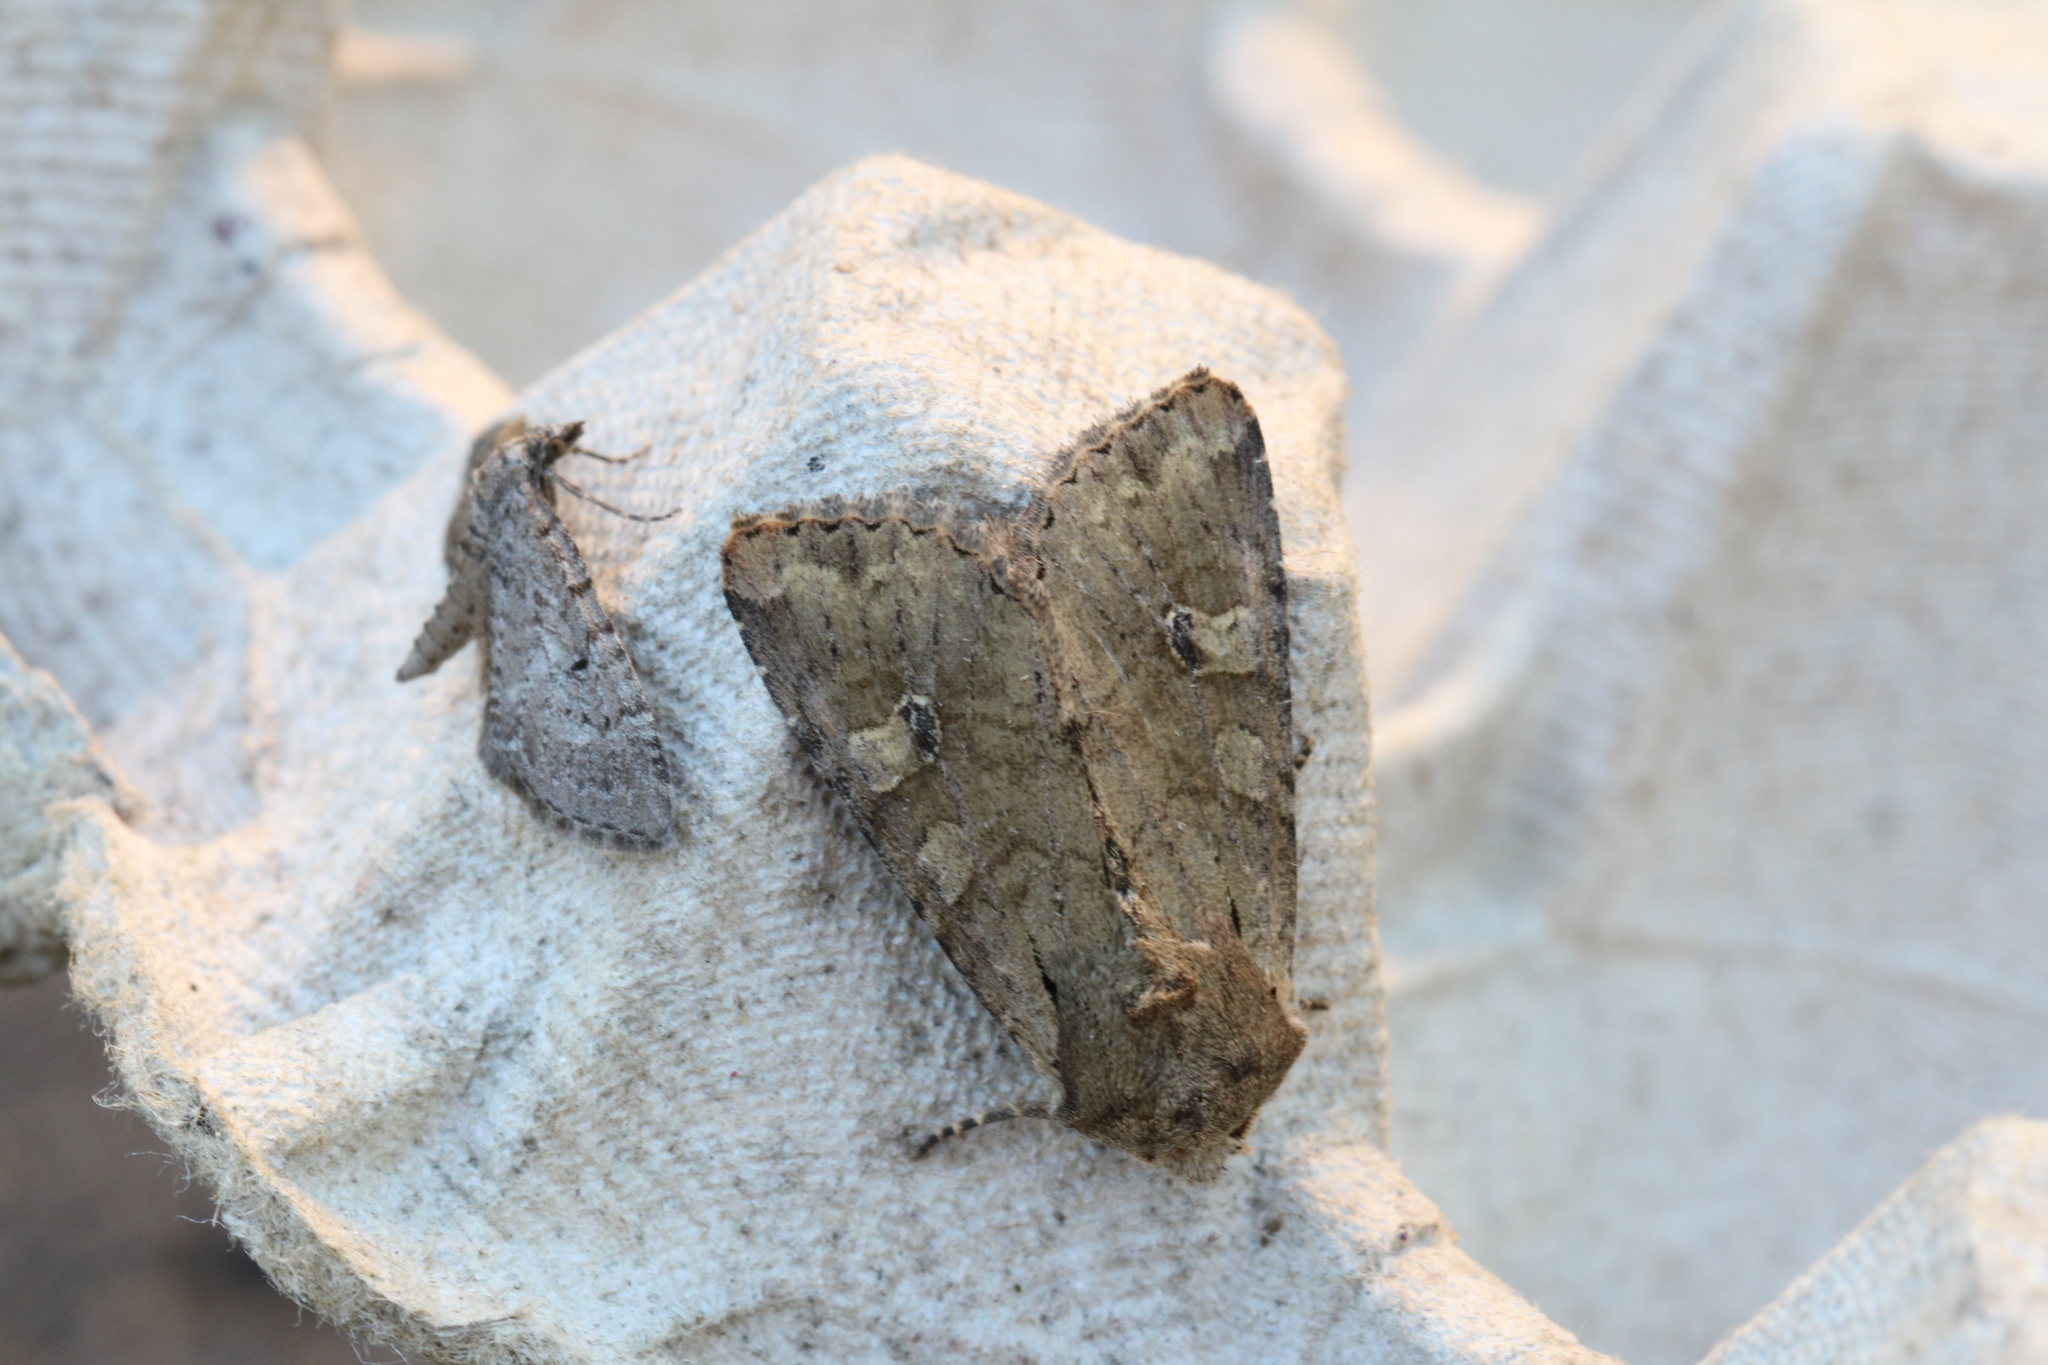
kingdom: Animalia
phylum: Arthropoda
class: Insecta
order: Lepidoptera
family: Noctuidae
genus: Apamea
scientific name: Apamea sordens
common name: Rustic shoulder-knot
